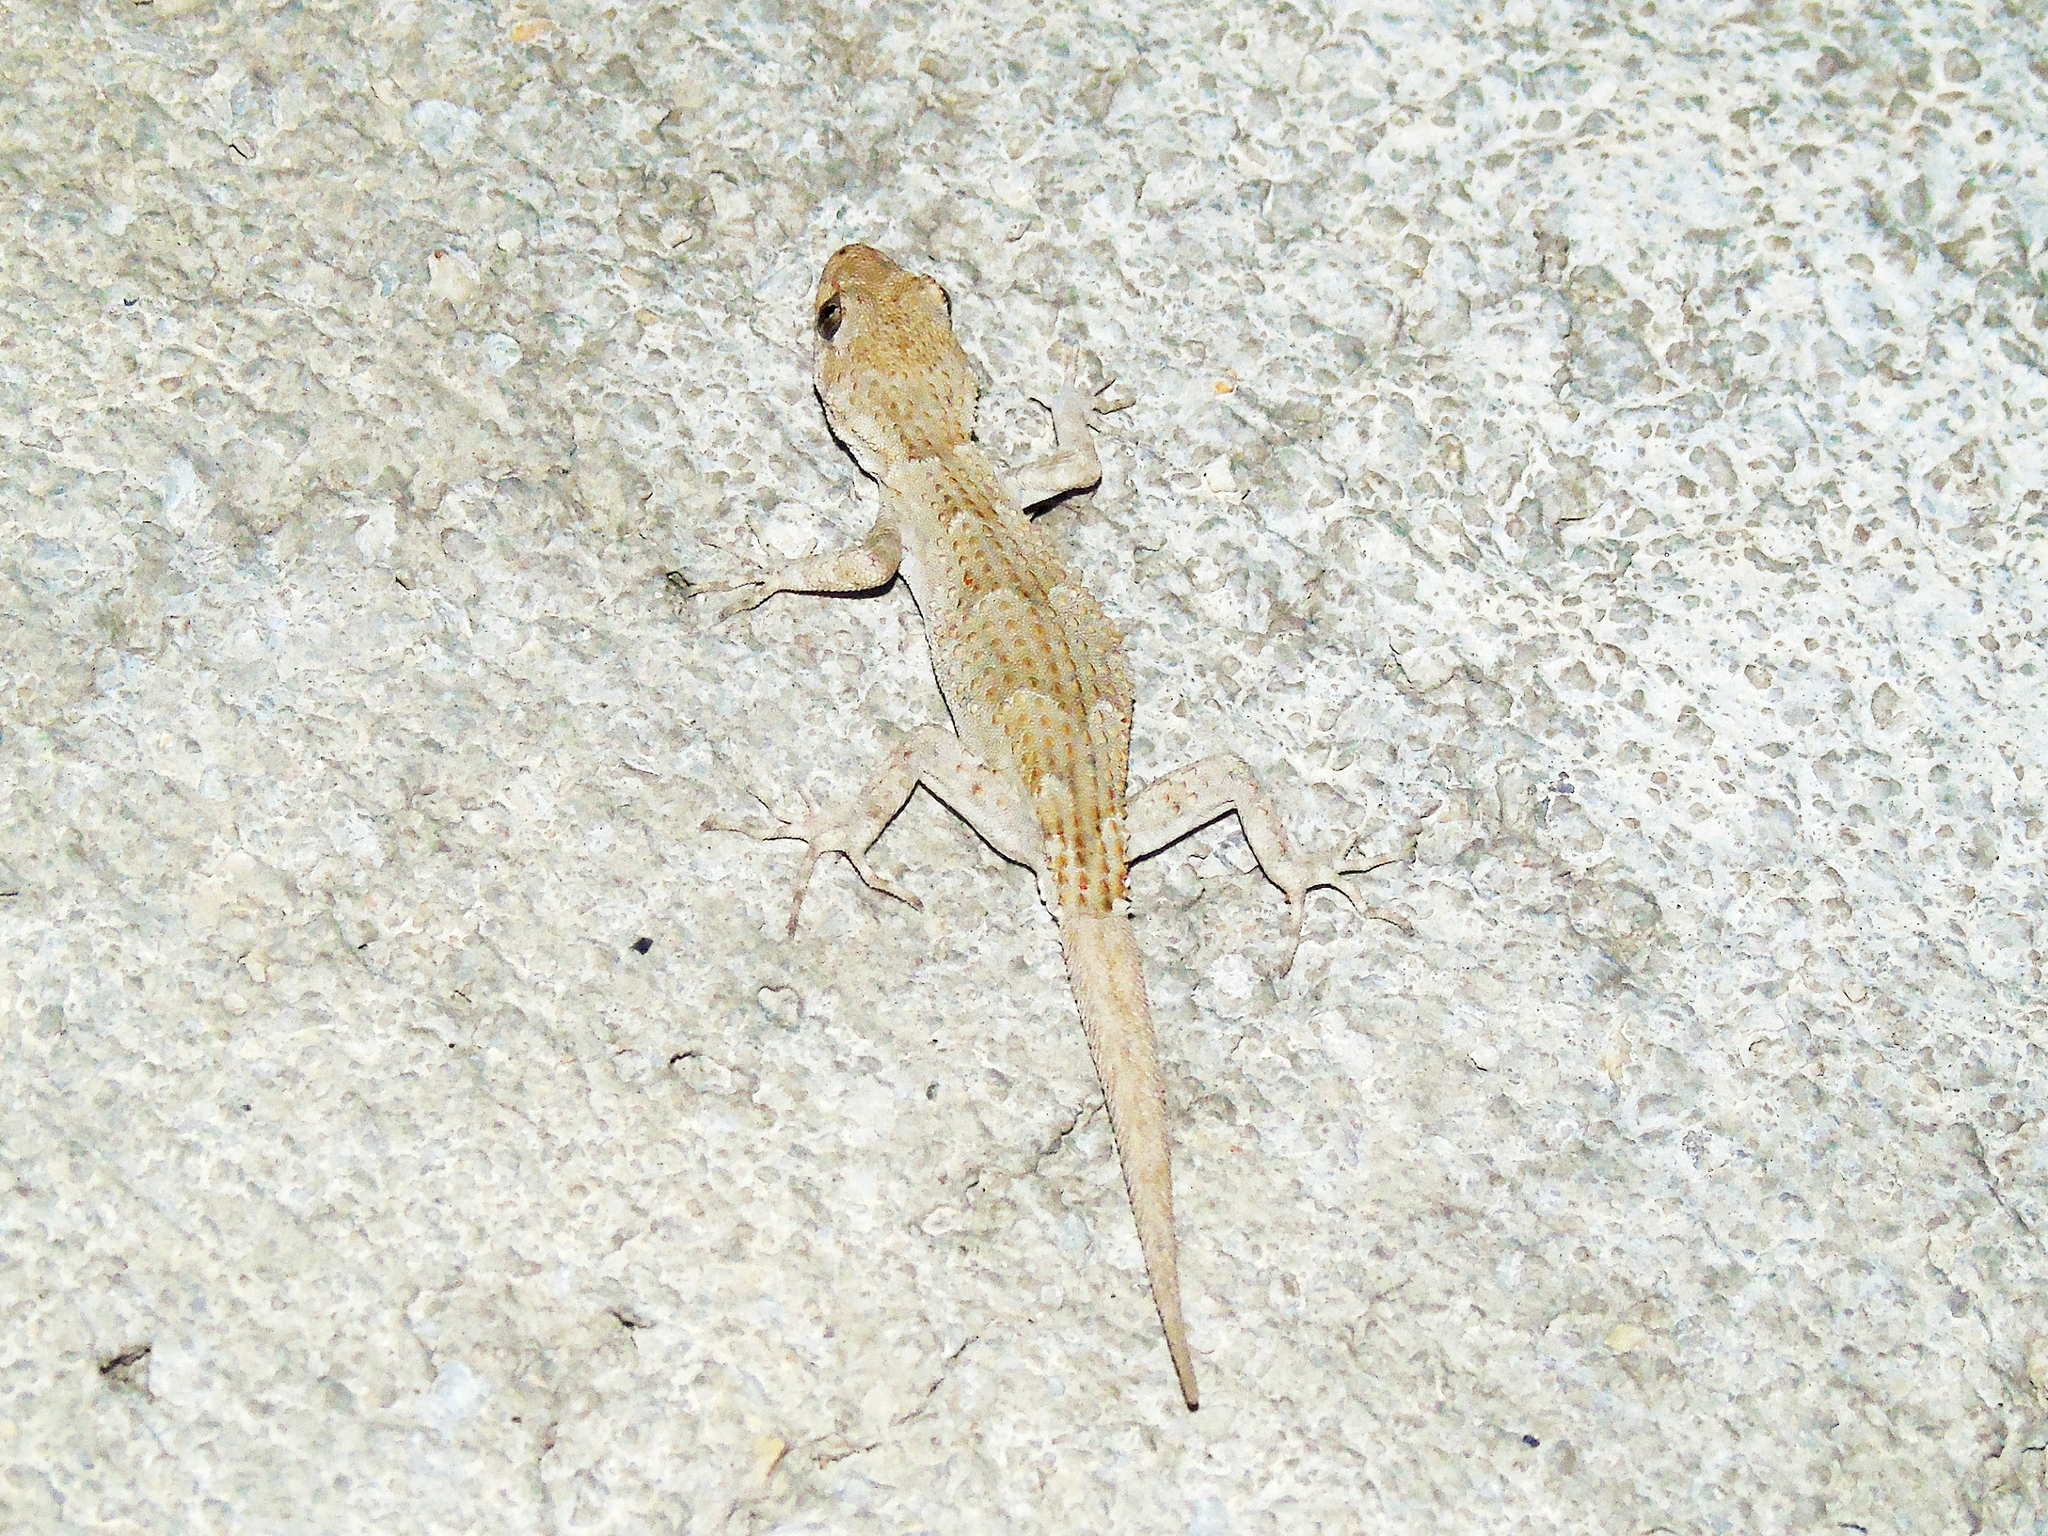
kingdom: Animalia
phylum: Chordata
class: Squamata
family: Gekkonidae
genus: Mediodactylus
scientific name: Mediodactylus kotschyi
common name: Kotschy's gecko
